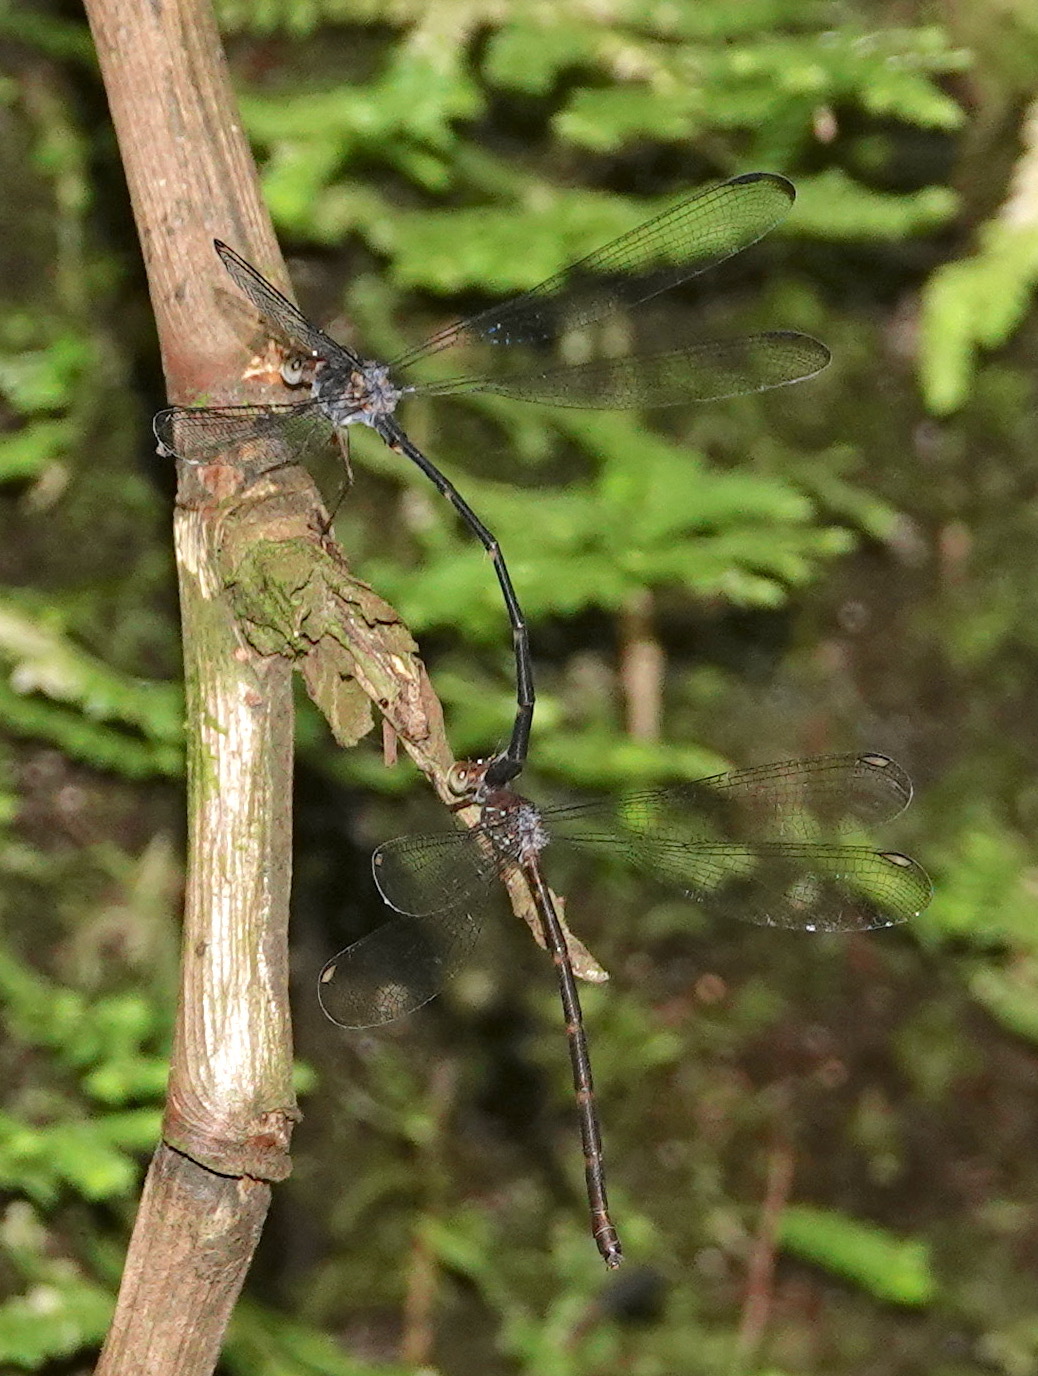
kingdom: Animalia
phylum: Arthropoda
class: Insecta
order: Odonata
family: Devadattidae
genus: Devadatta
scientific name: Devadatta argyoides
